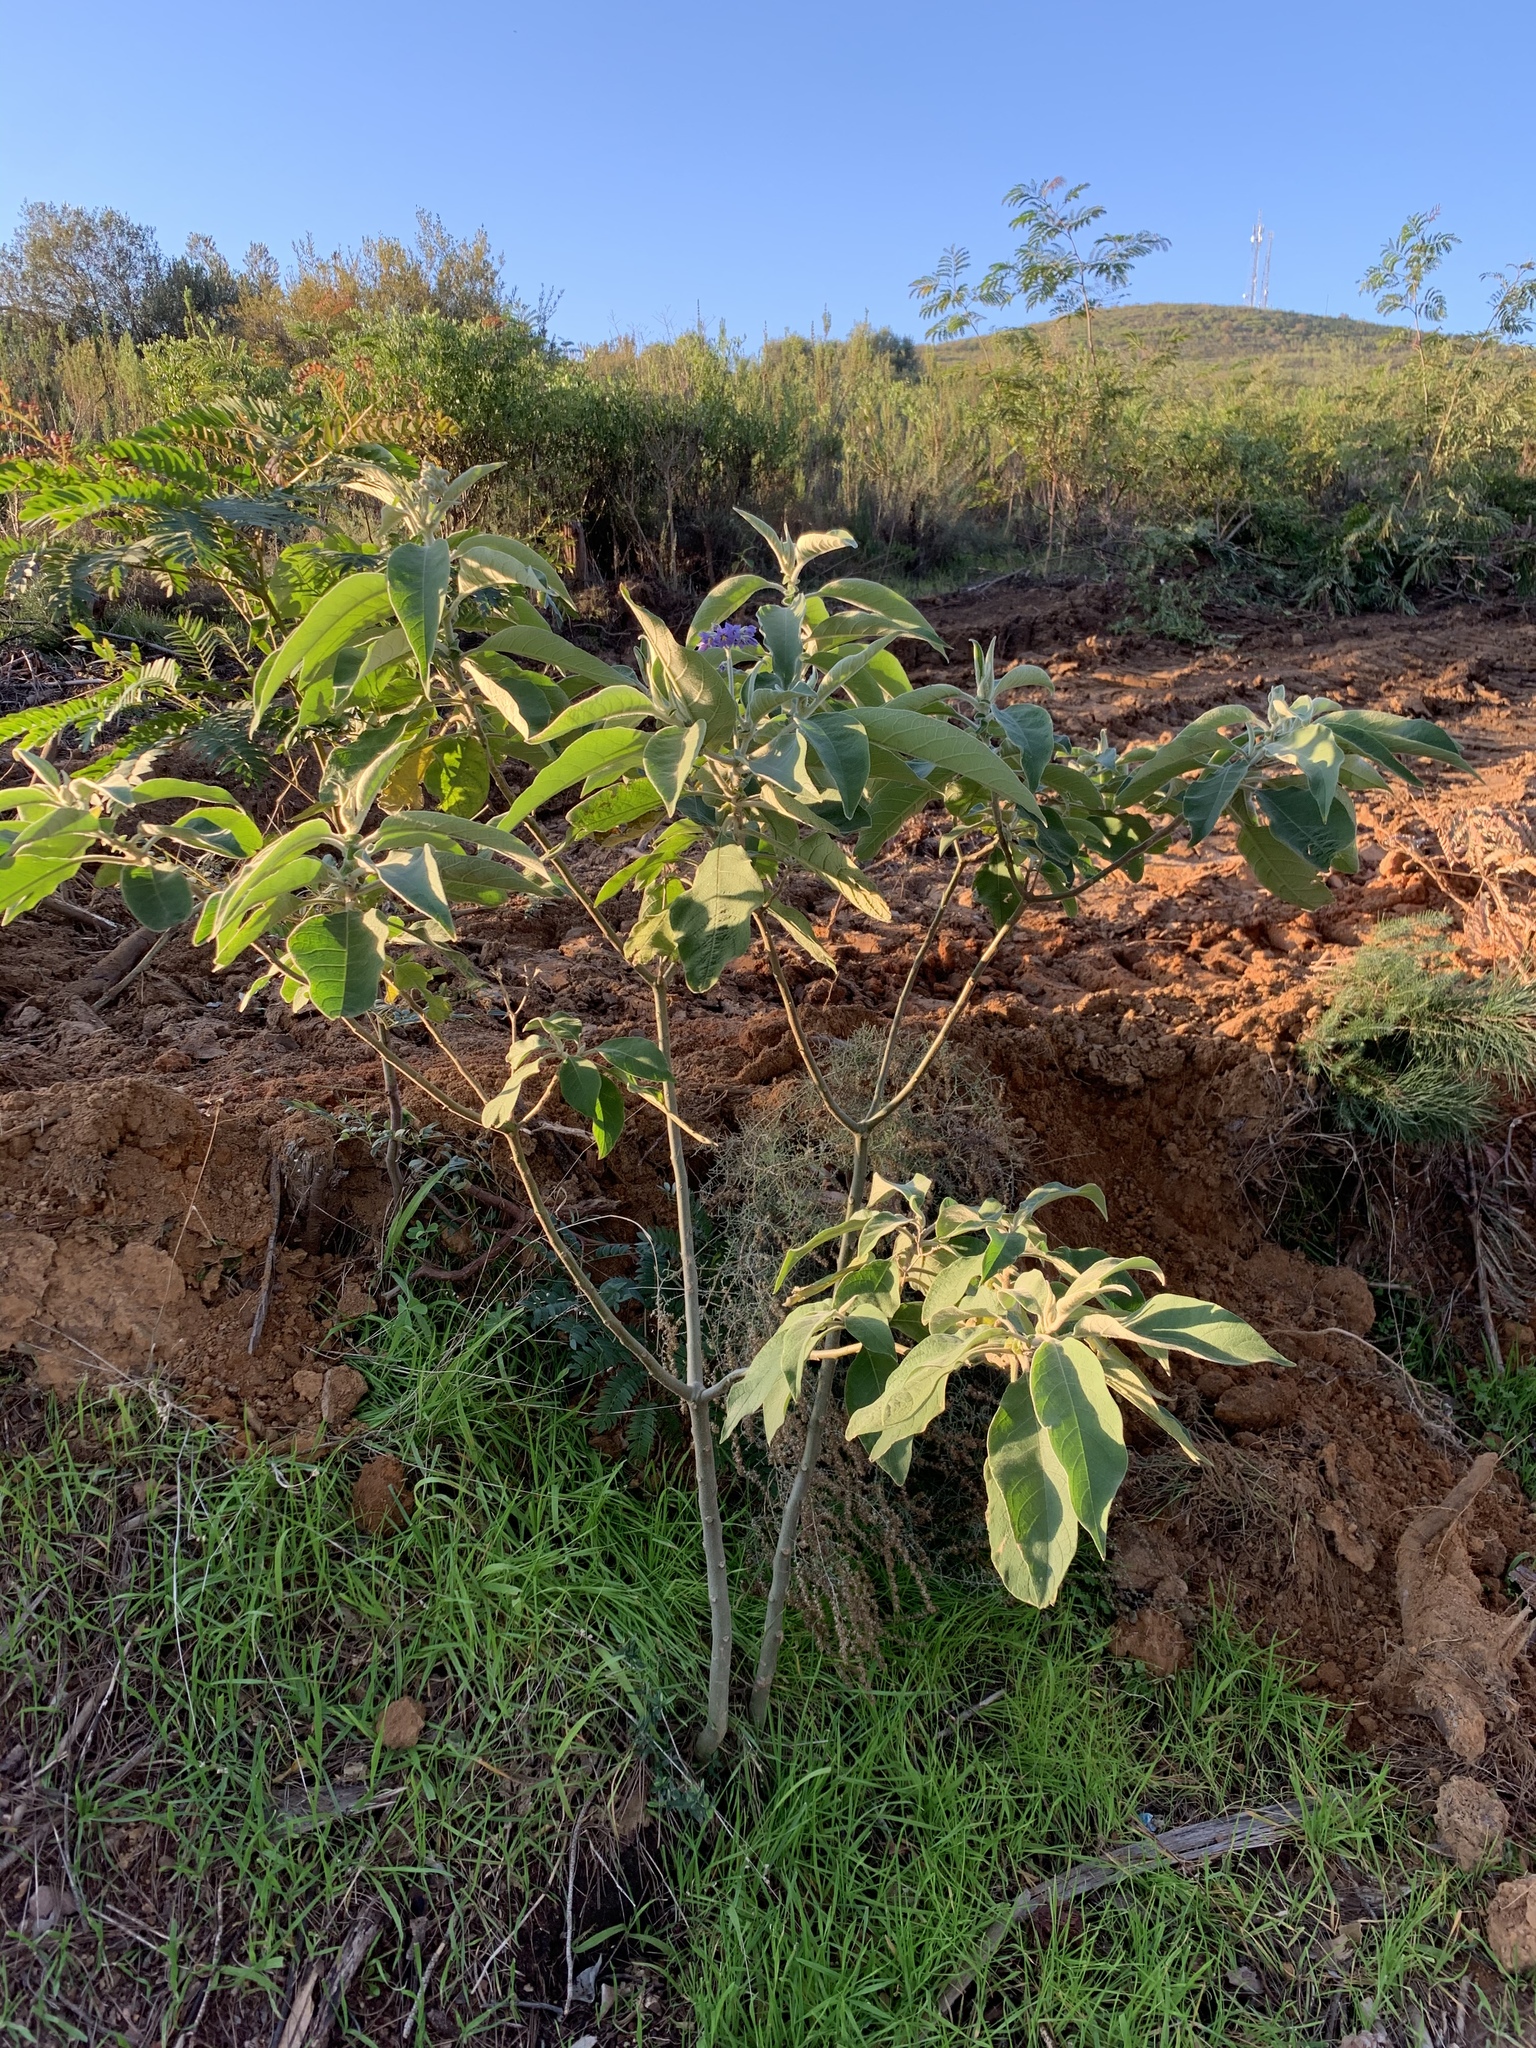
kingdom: Plantae
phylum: Tracheophyta
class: Magnoliopsida
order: Solanales
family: Solanaceae
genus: Solanum
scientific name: Solanum mauritianum
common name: Earleaf nightshade
